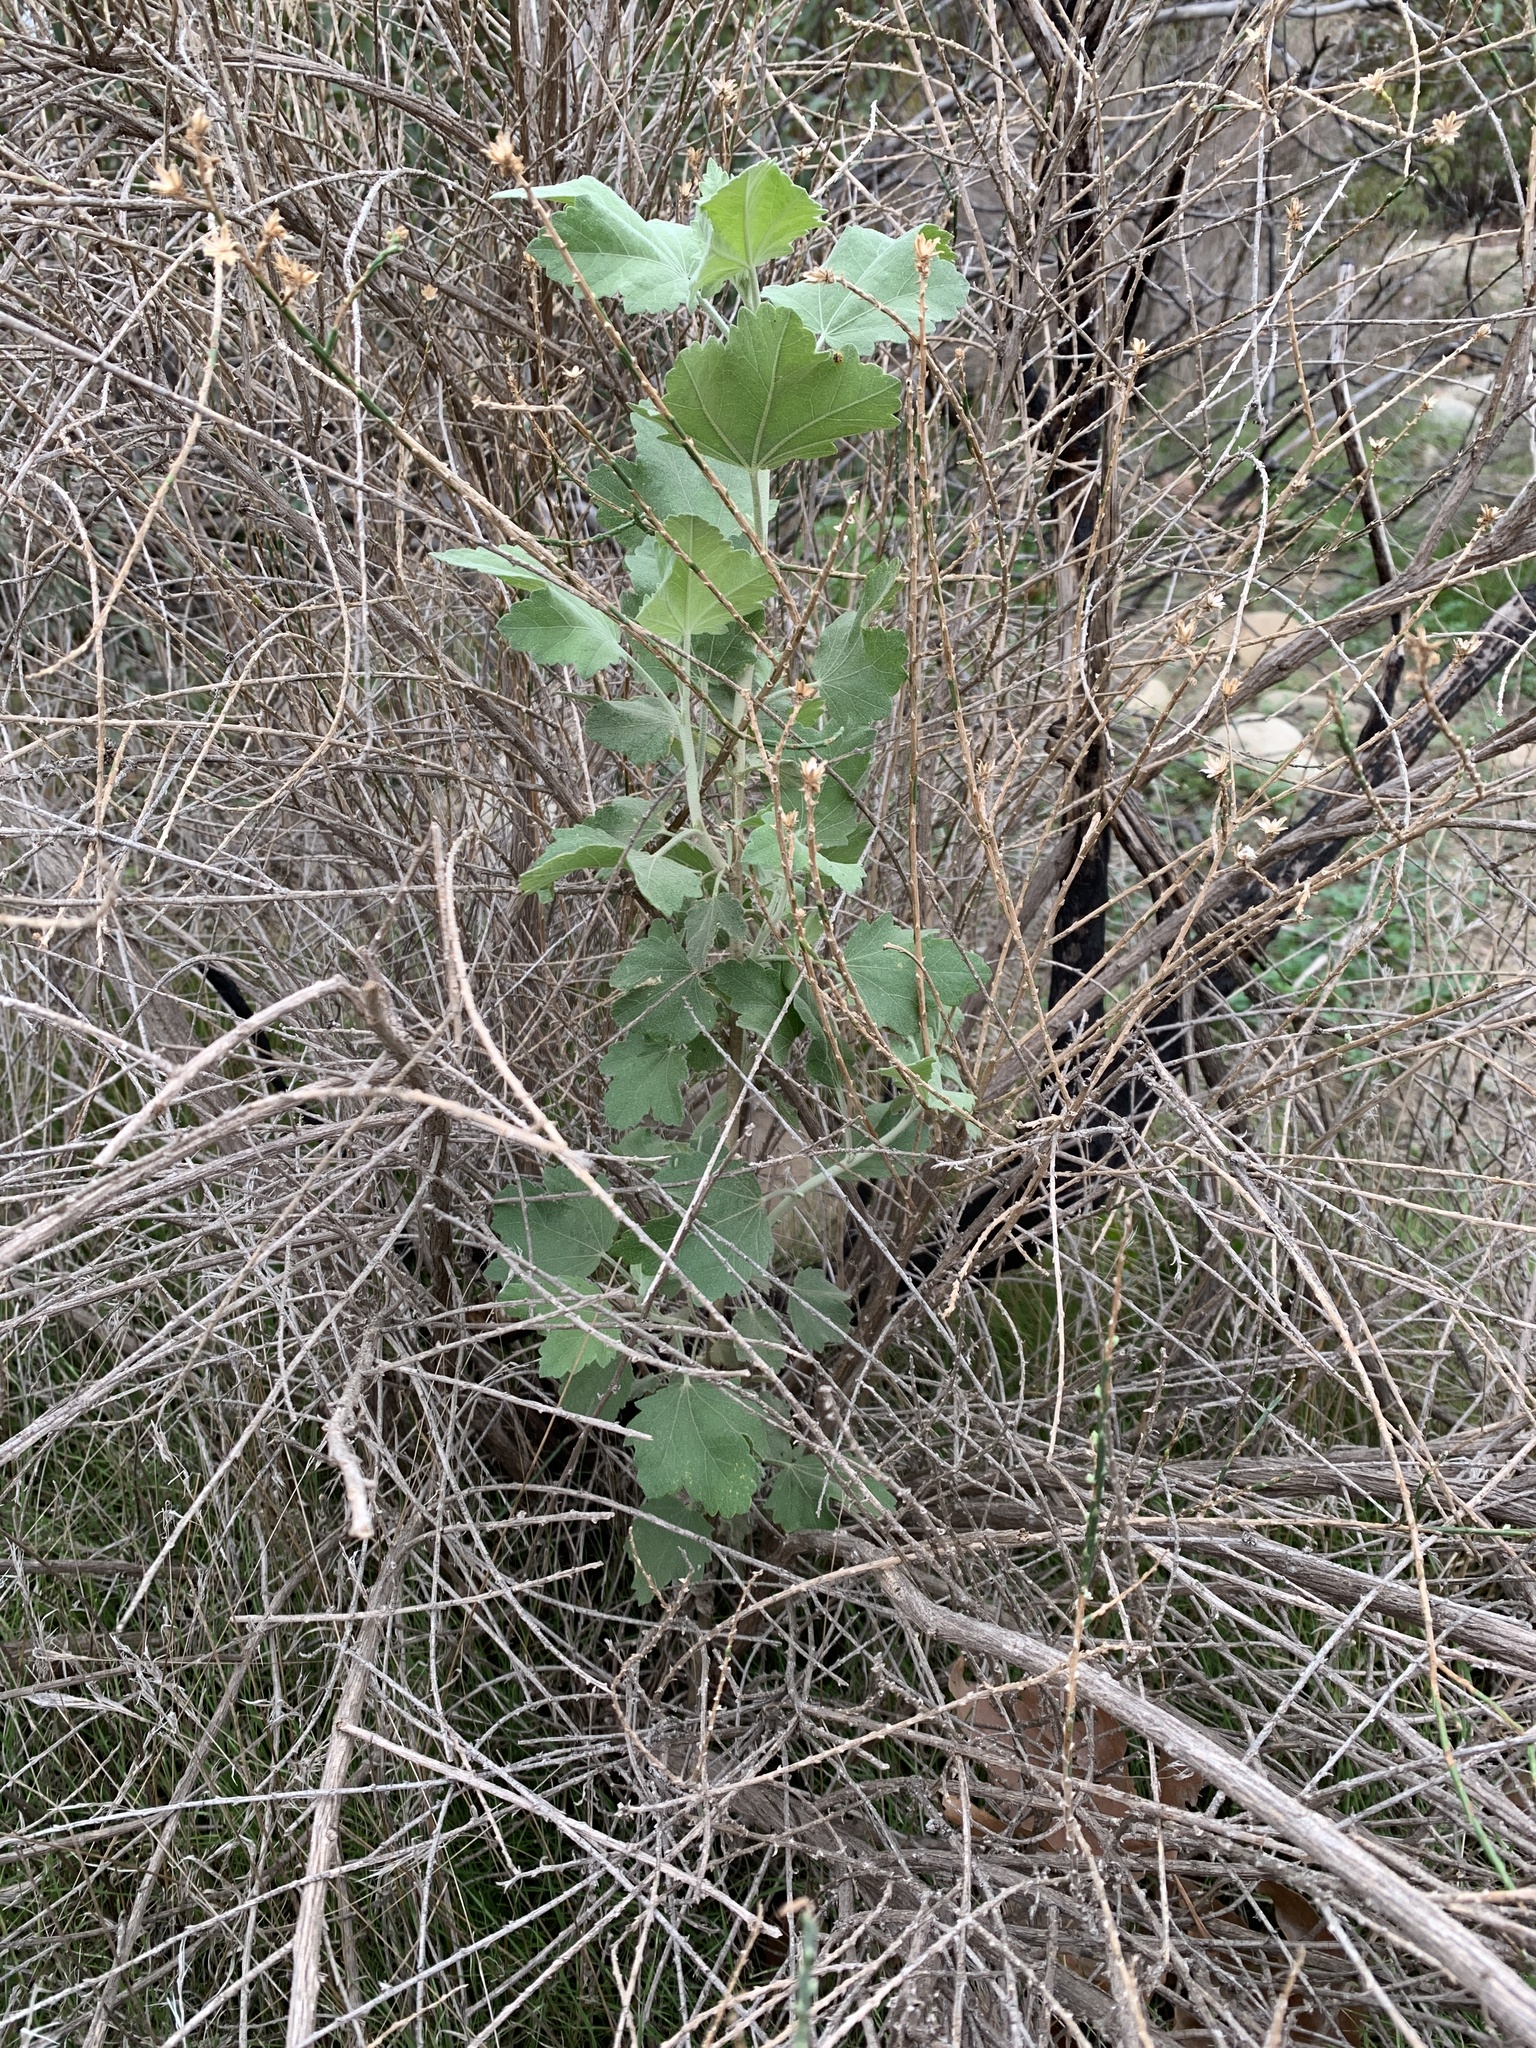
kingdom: Plantae
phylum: Tracheophyta
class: Magnoliopsida
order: Malvales
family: Malvaceae
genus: Malacothamnus
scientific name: Malacothamnus fasciculatus
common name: Sant cruz island bush-mallow
